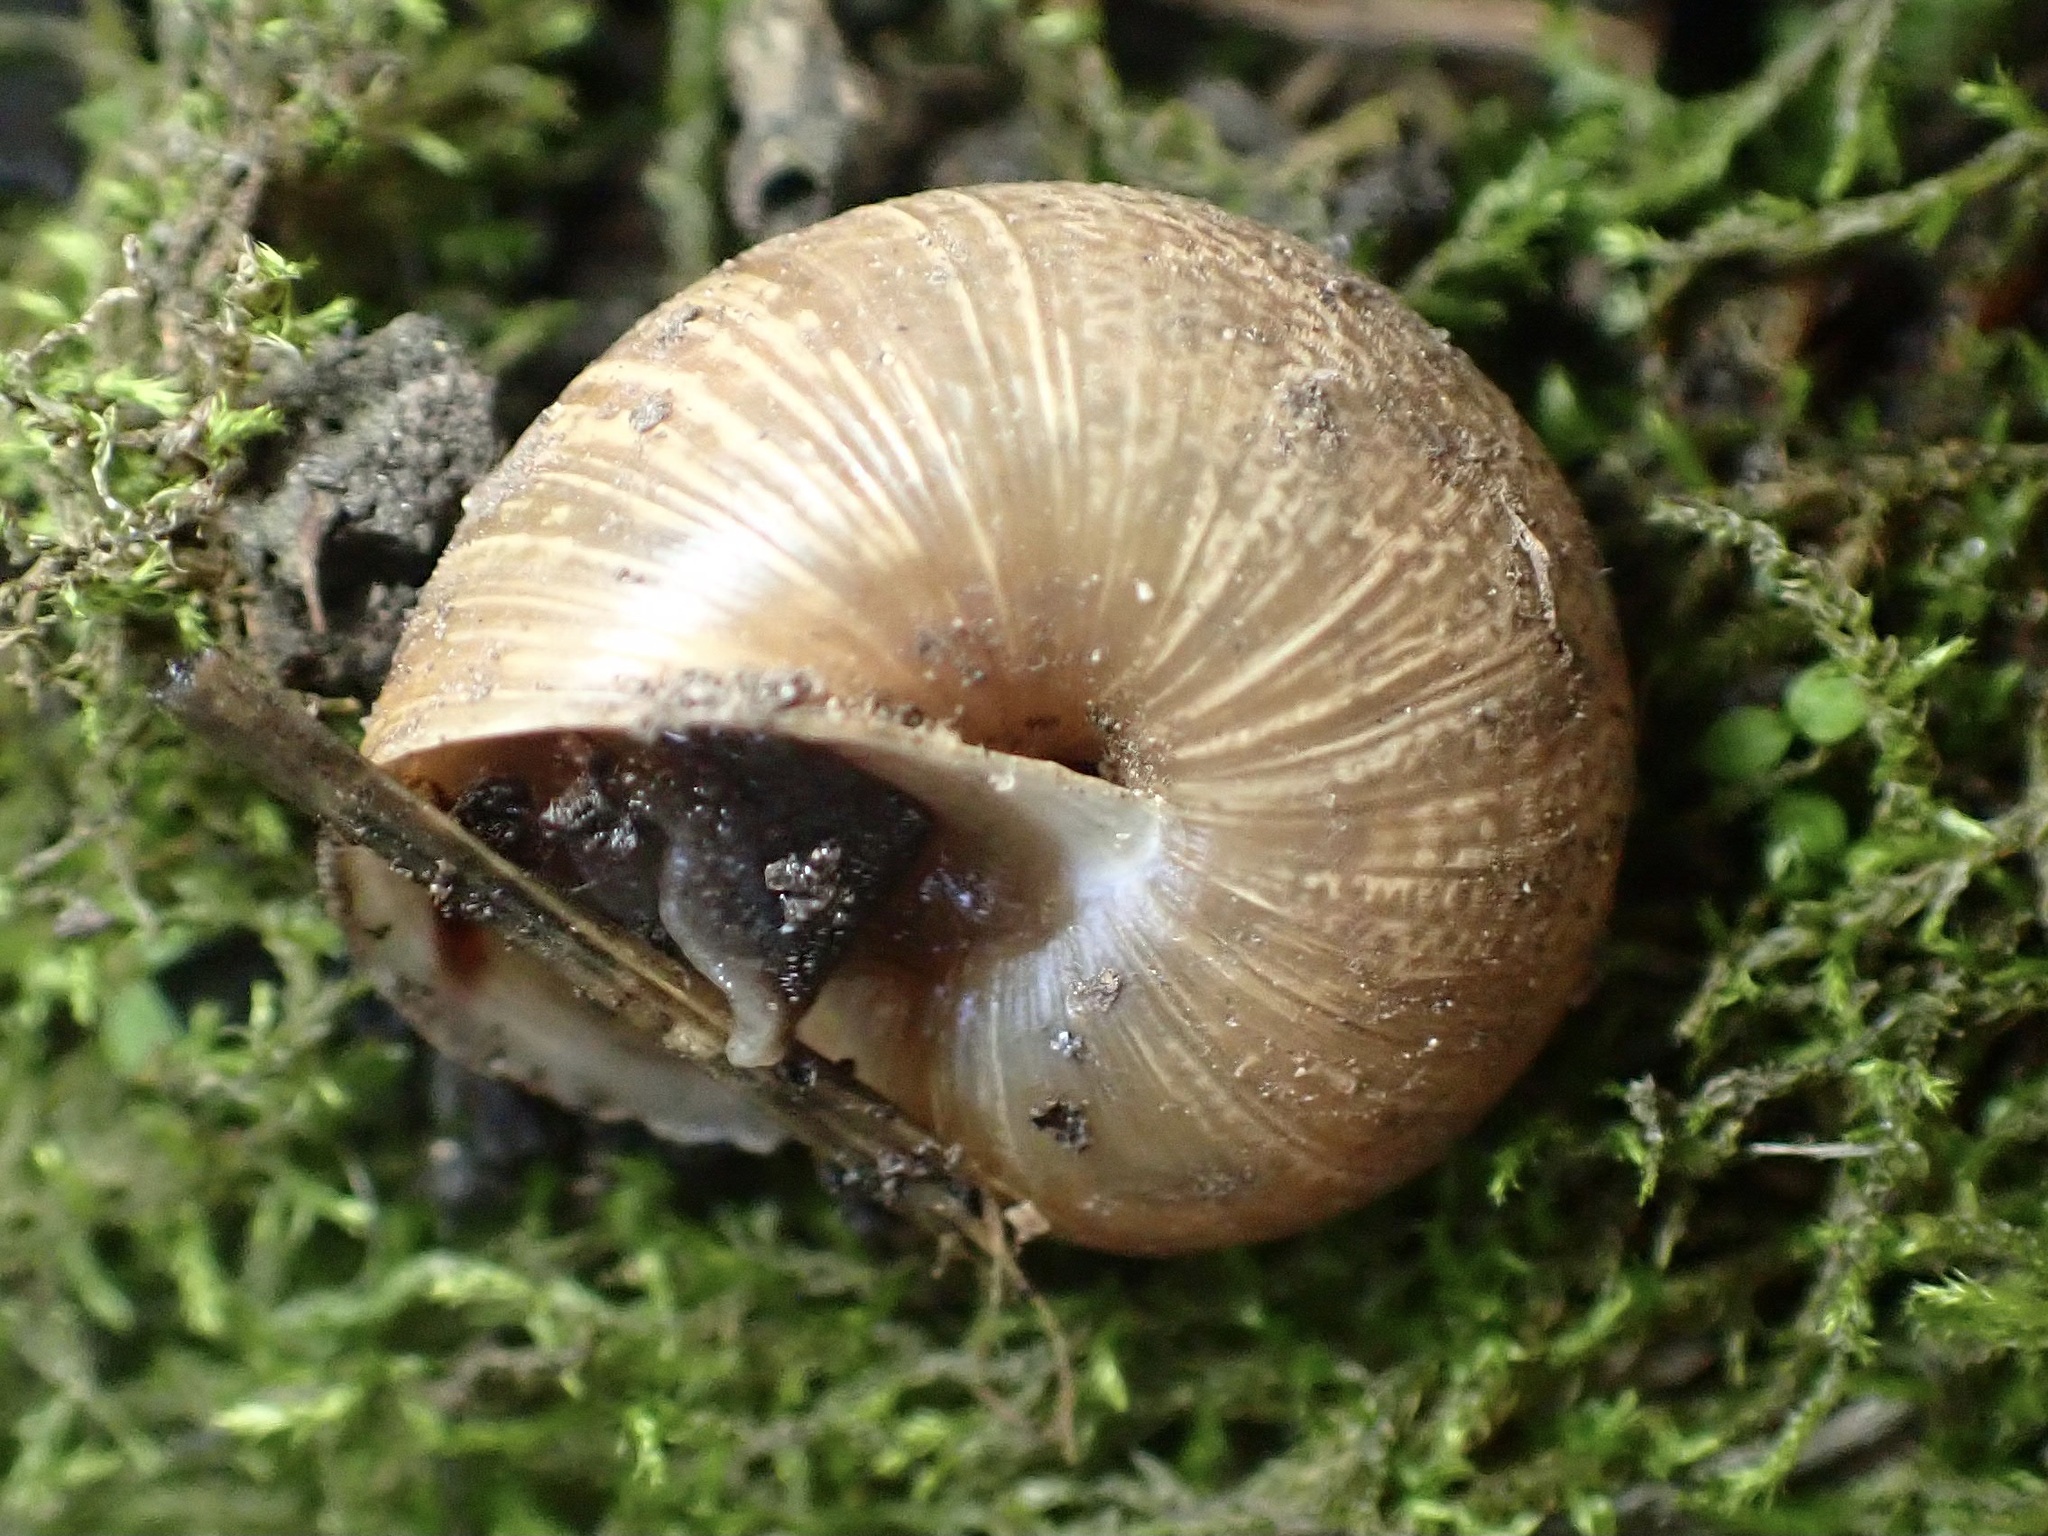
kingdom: Animalia
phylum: Mollusca
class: Gastropoda
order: Stylommatophora
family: Xanthonychidae
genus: Helminthoglypta
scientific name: Helminthoglypta nickliniana
